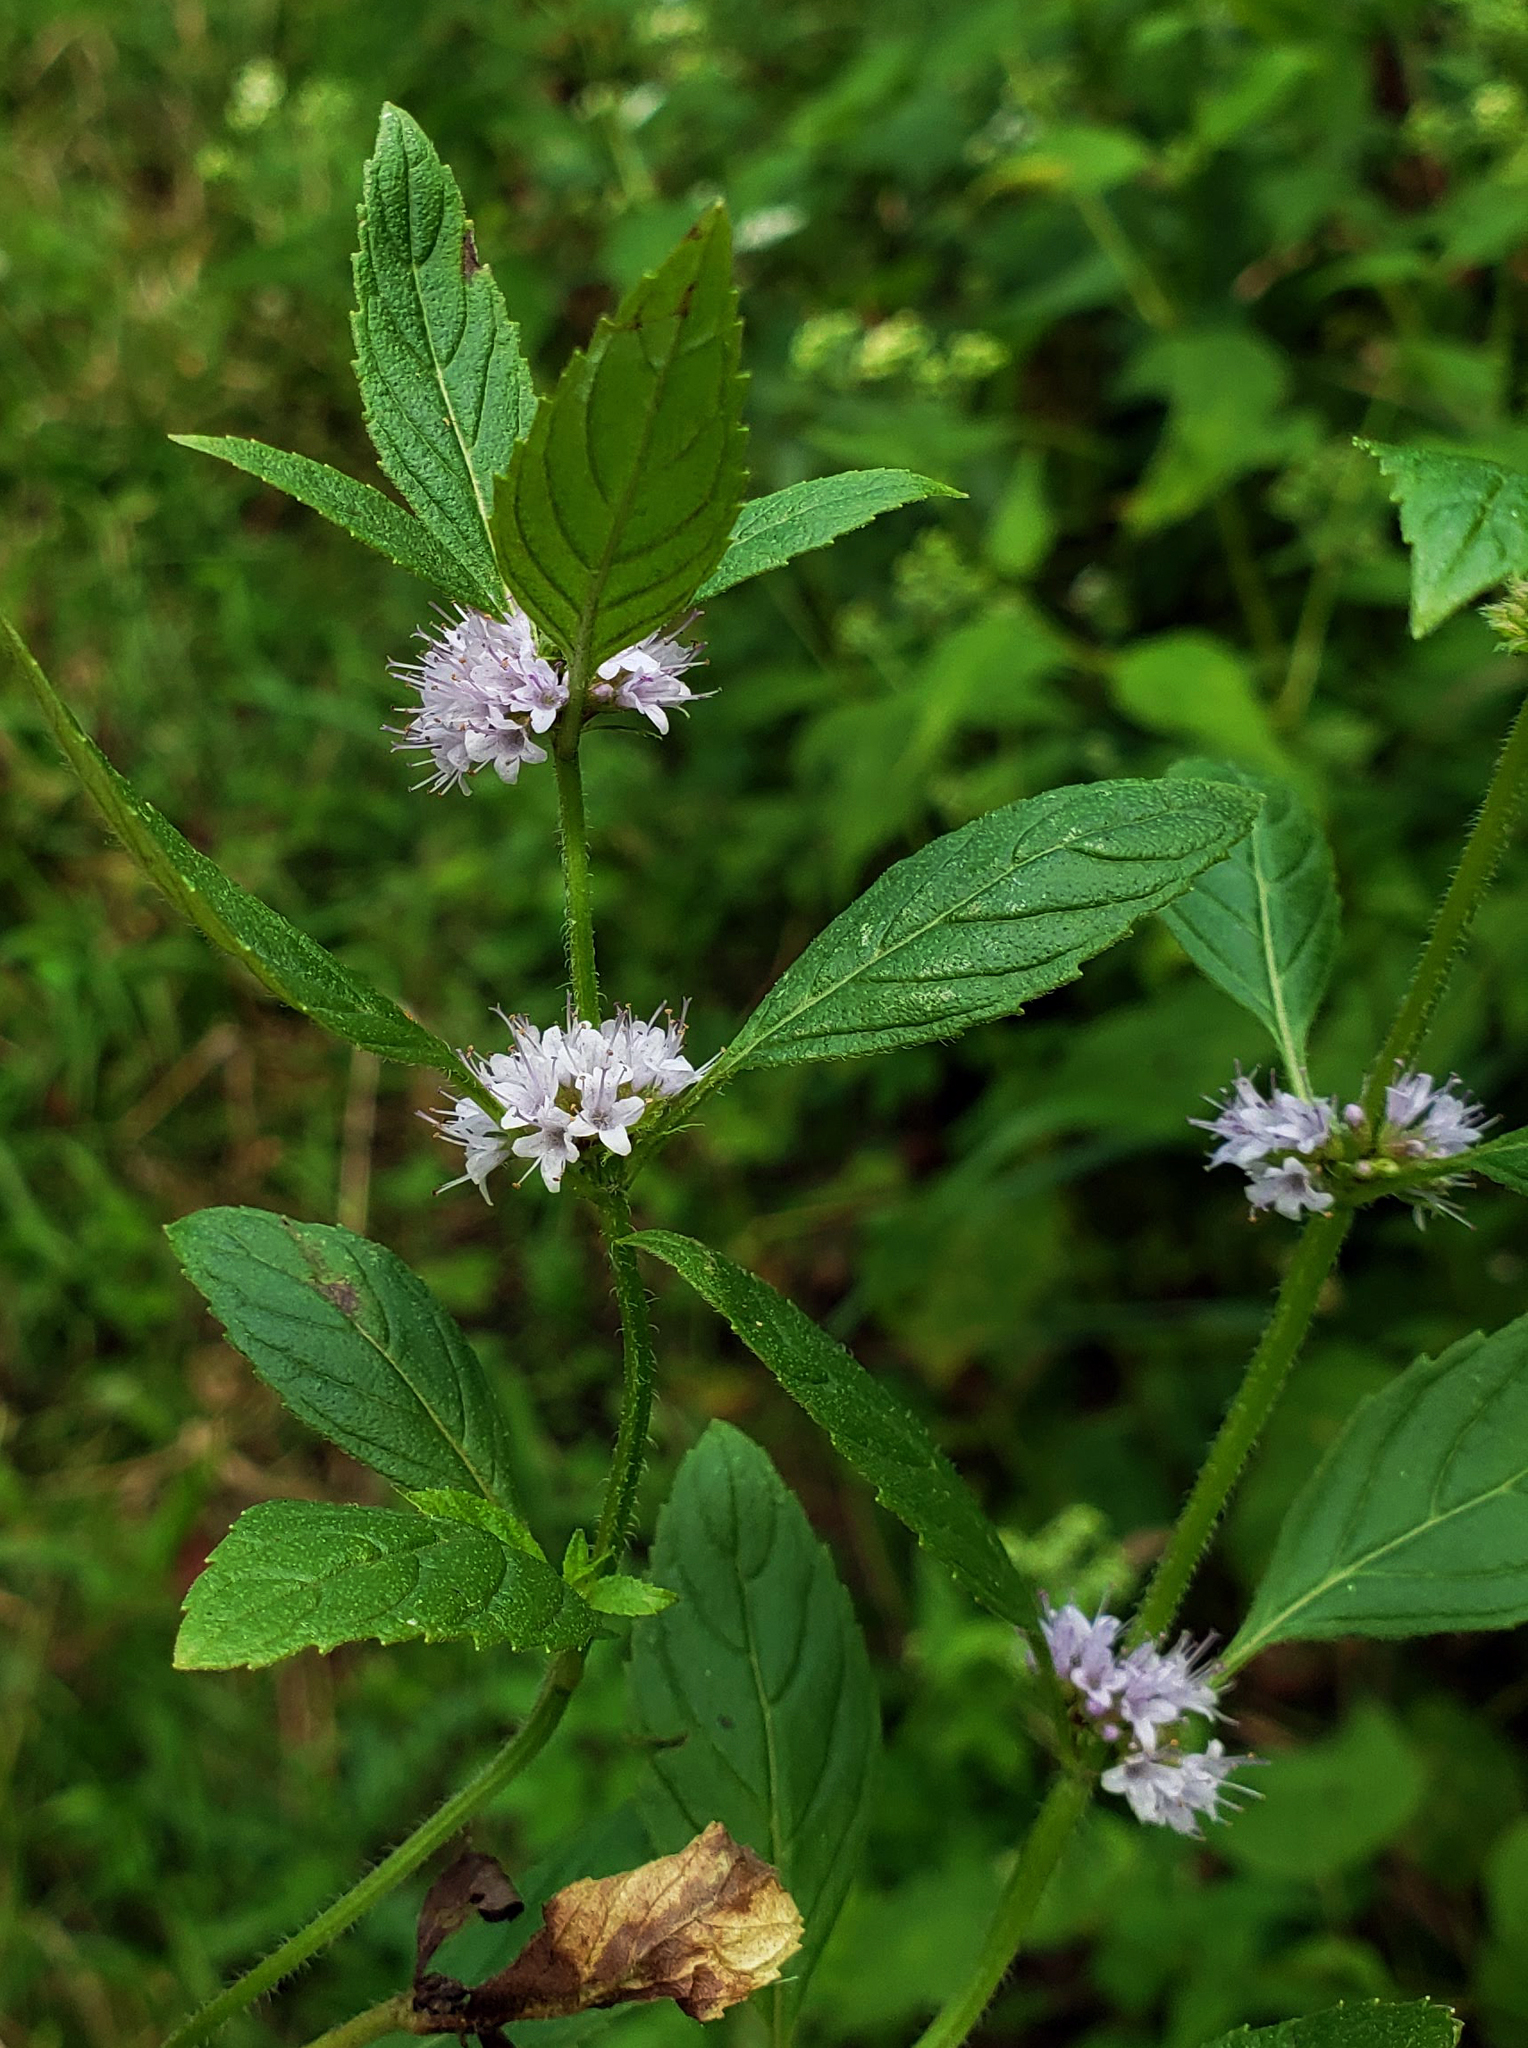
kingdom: Plantae
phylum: Tracheophyta
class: Magnoliopsida
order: Lamiales
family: Lamiaceae
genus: Mentha
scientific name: Mentha canadensis
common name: American corn mint
